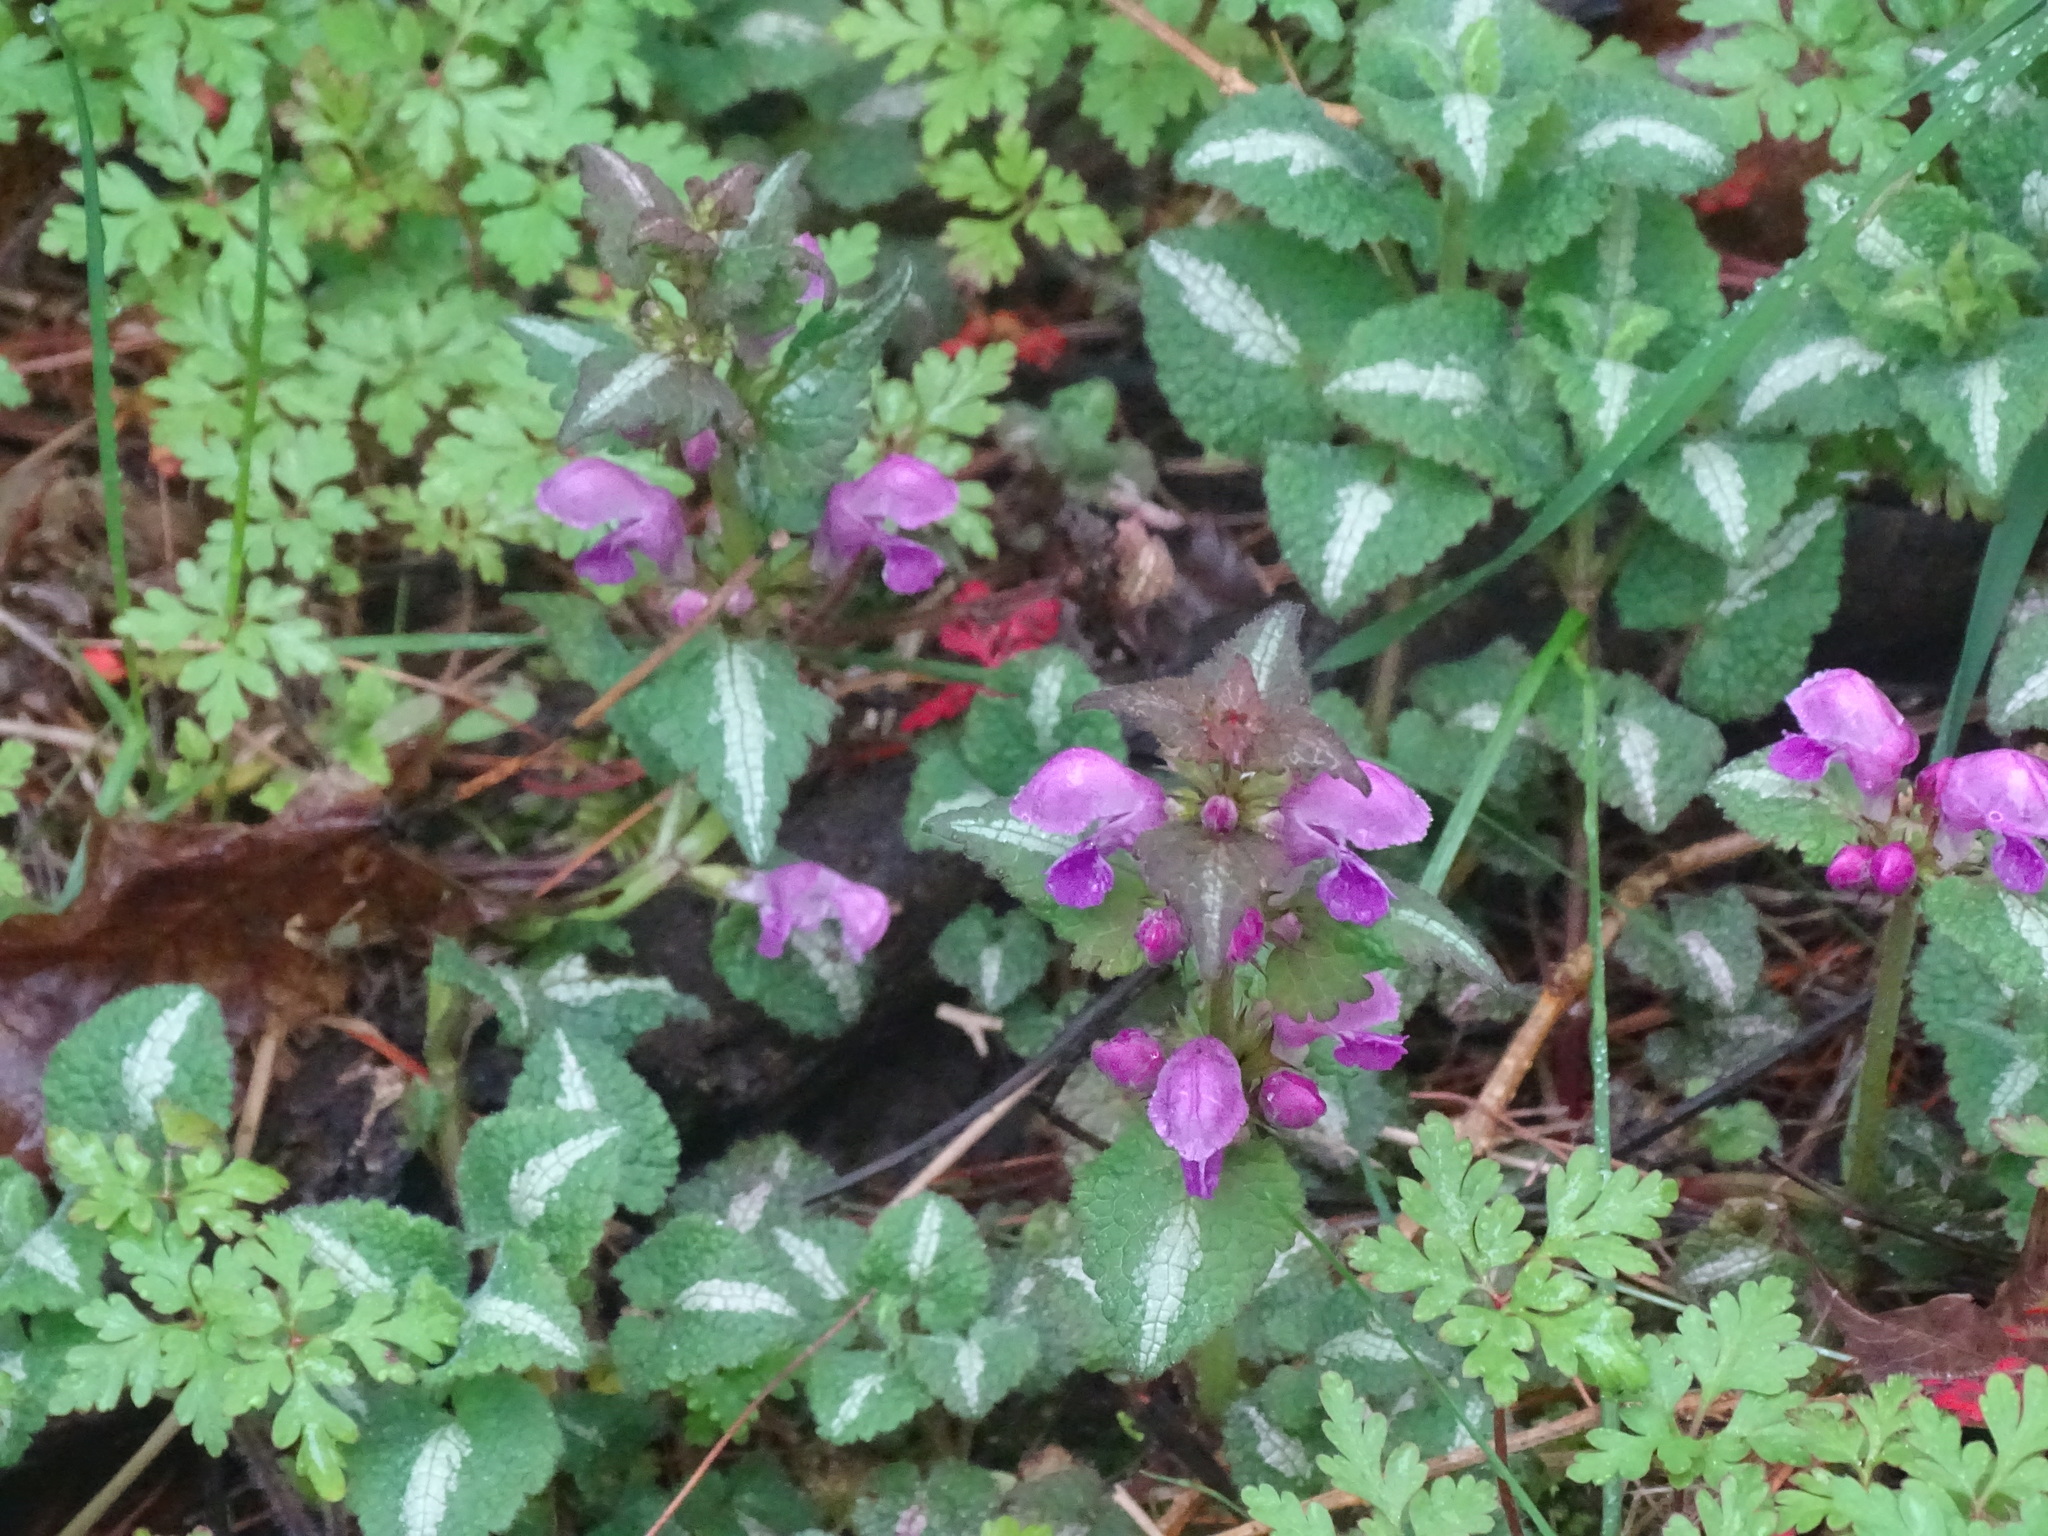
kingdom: Plantae
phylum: Tracheophyta
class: Magnoliopsida
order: Lamiales
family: Lamiaceae
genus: Lamium
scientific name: Lamium maculatum
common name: Spotted dead-nettle
